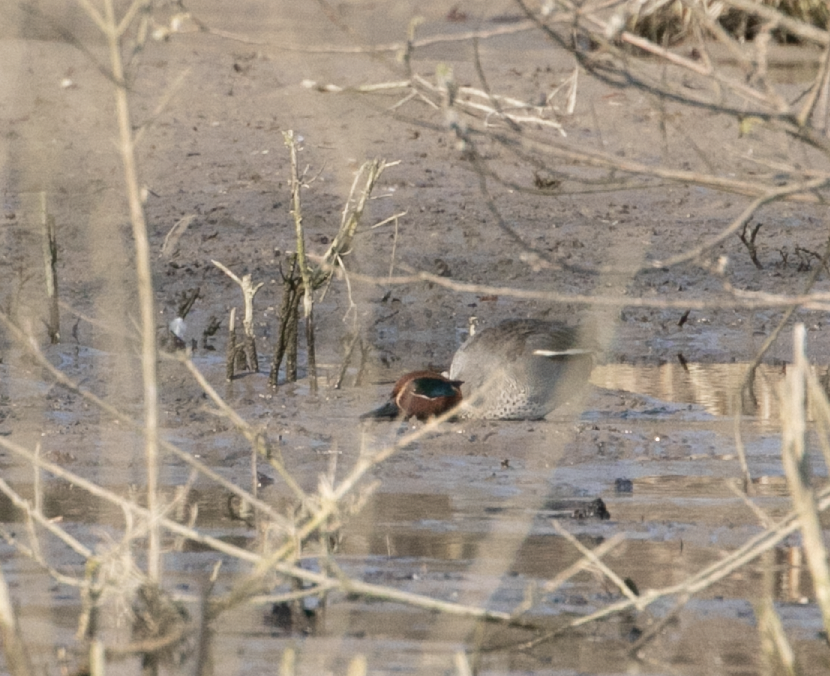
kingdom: Animalia
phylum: Chordata
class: Aves
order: Anseriformes
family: Anatidae
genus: Anas
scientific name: Anas crecca
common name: Eurasian teal
